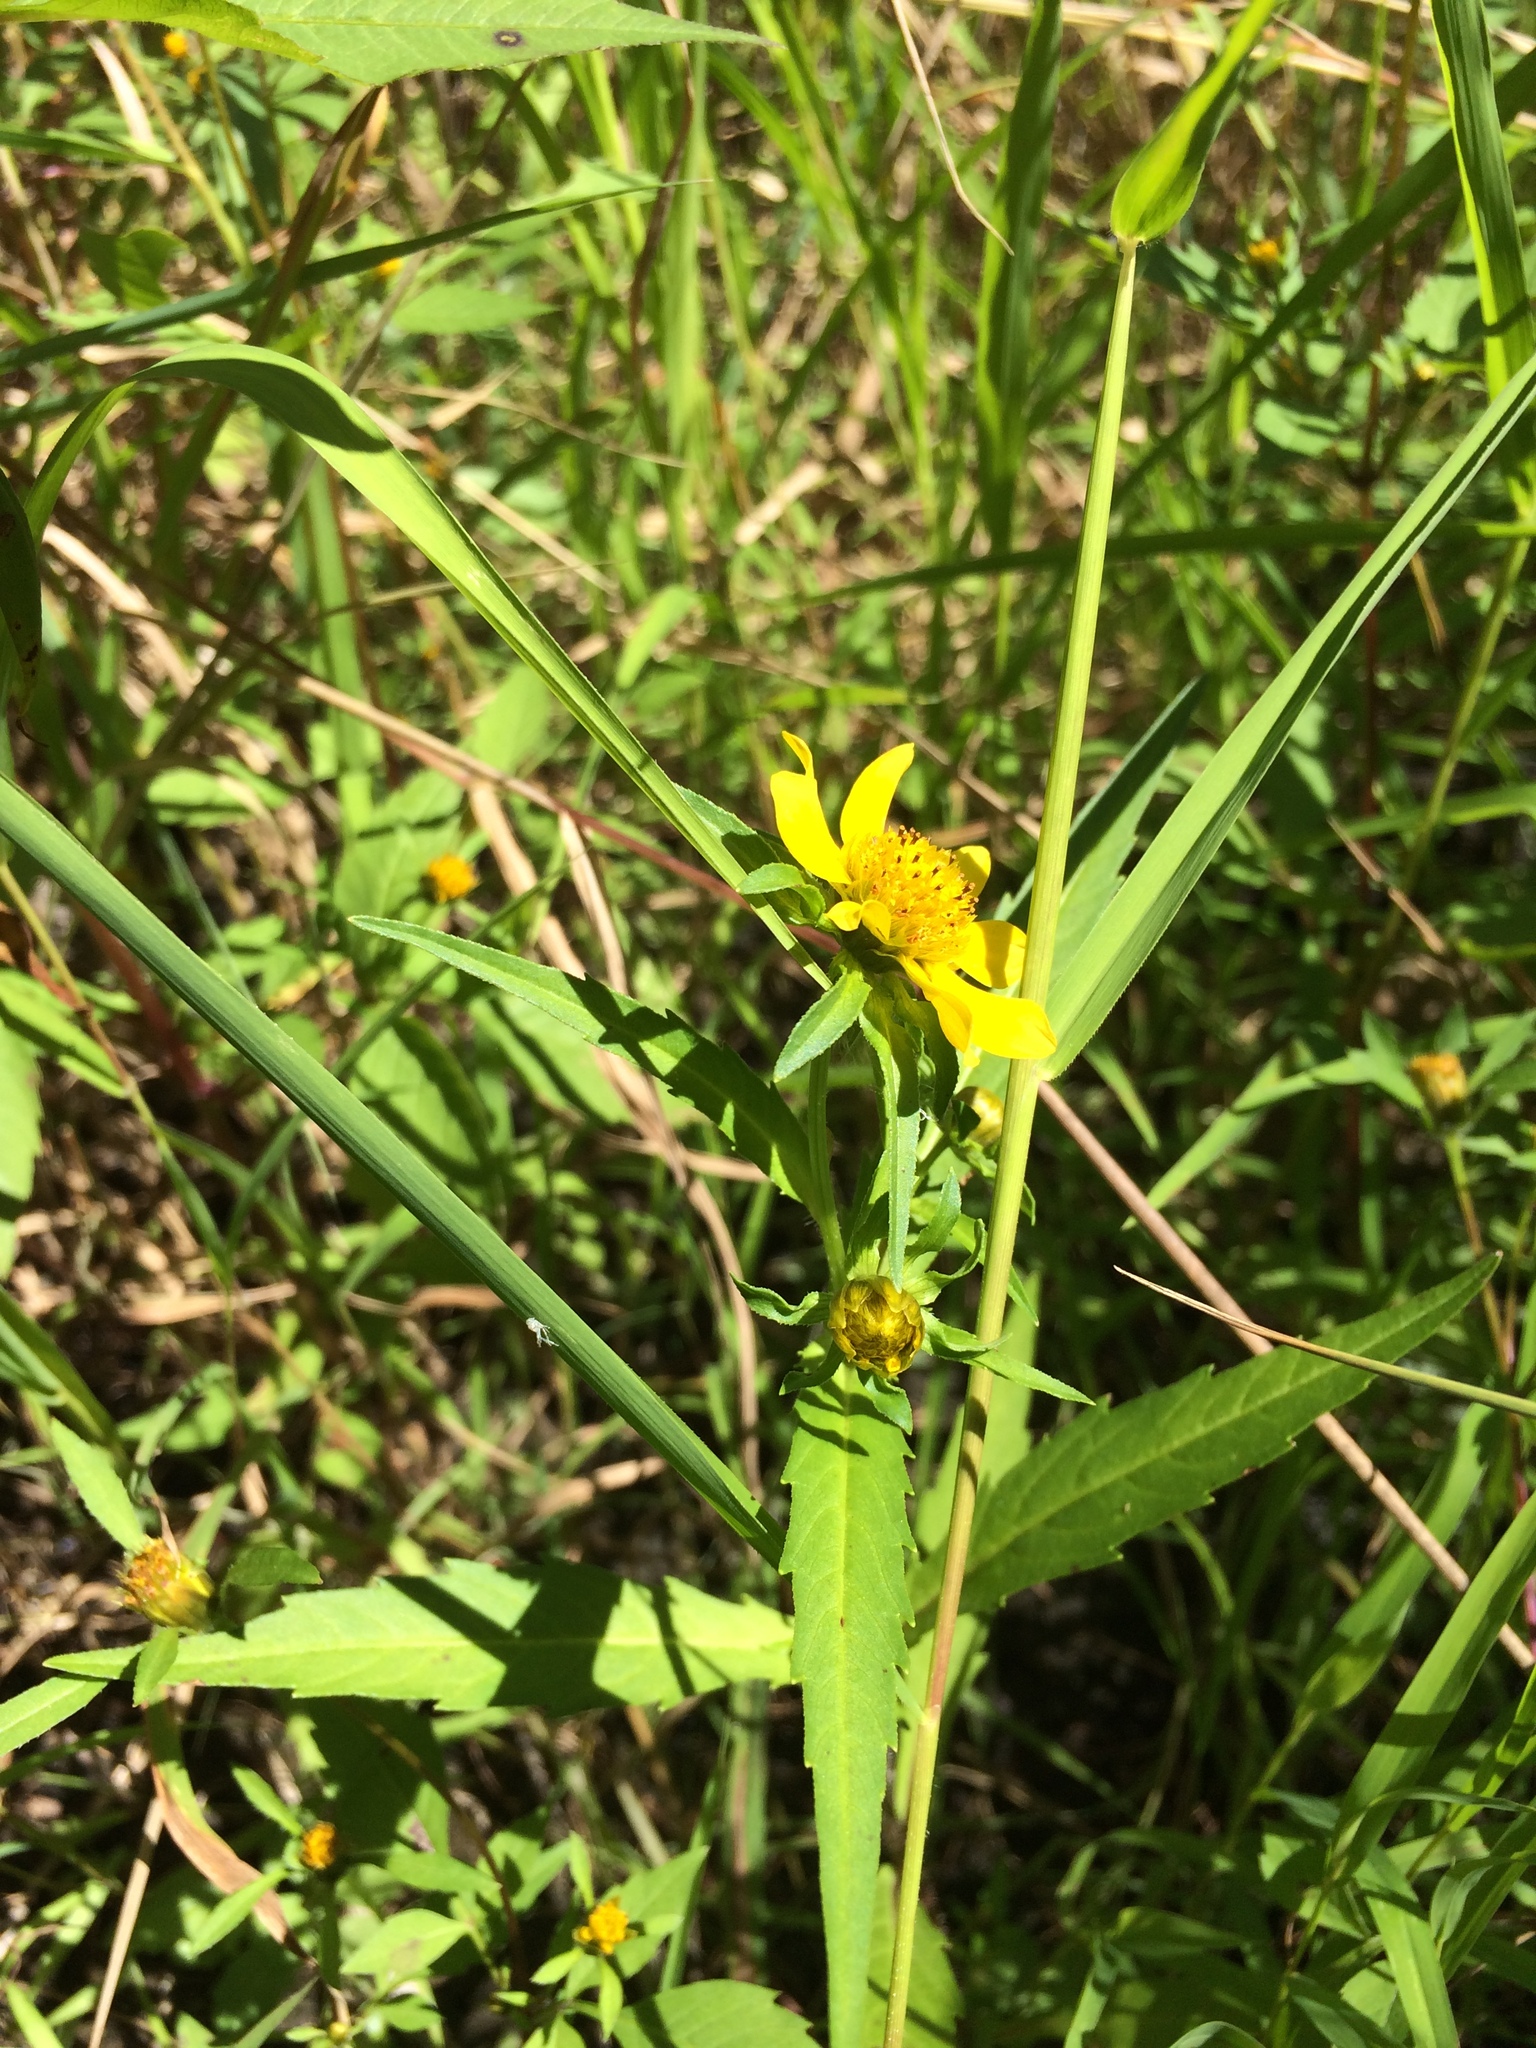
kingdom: Plantae
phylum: Tracheophyta
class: Magnoliopsida
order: Asterales
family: Asteraceae
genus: Bidens
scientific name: Bidens cernua
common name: Nodding bur-marigold
